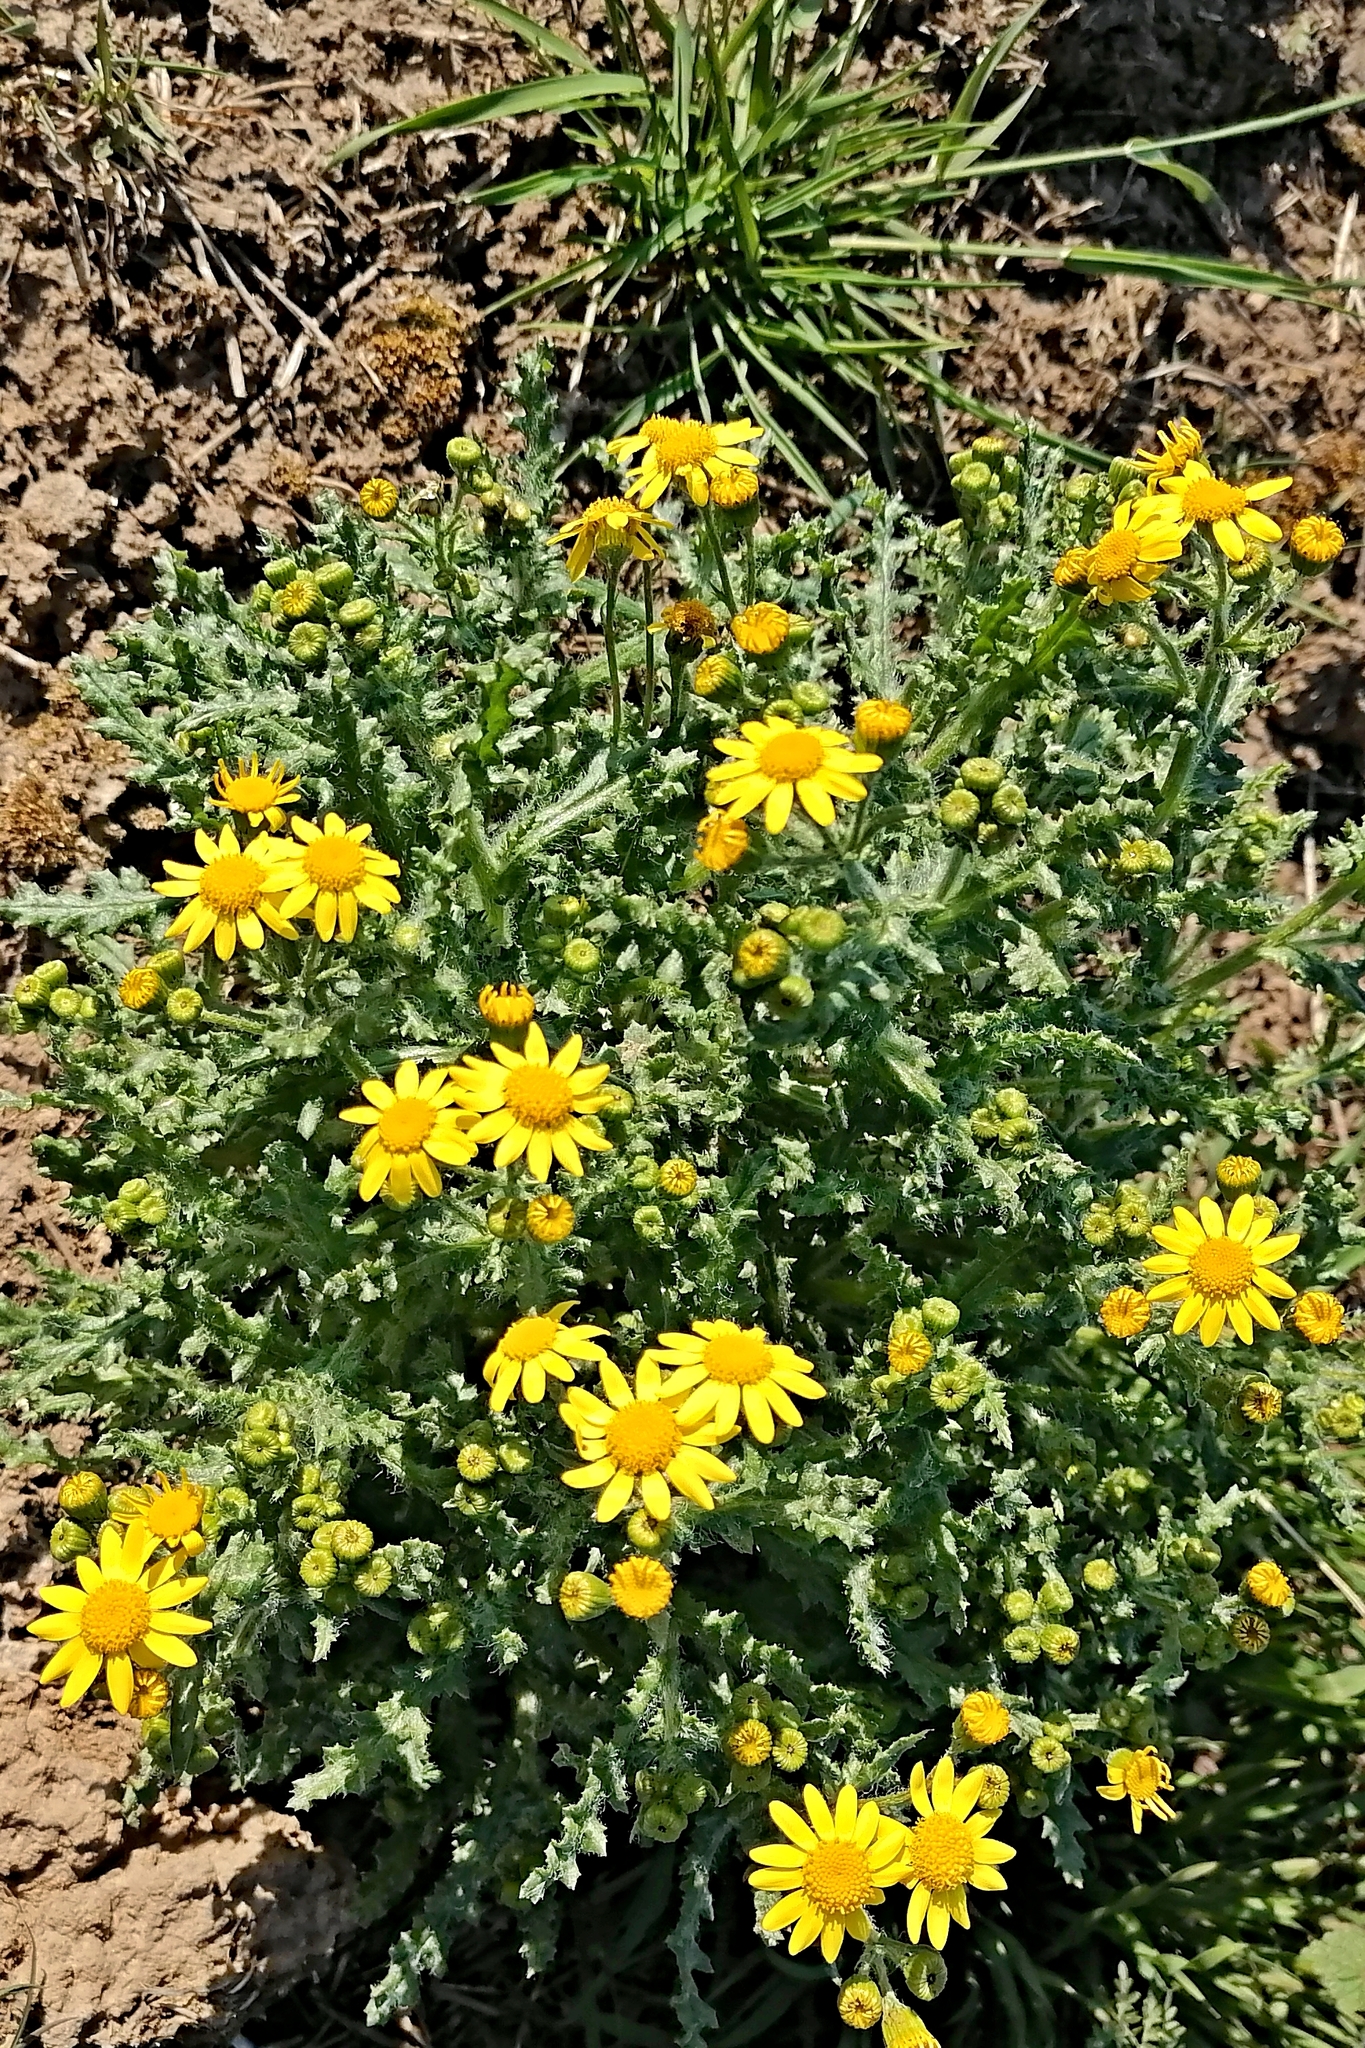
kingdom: Plantae
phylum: Tracheophyta
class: Magnoliopsida
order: Asterales
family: Asteraceae
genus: Senecio
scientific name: Senecio vernalis
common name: Eastern groundsel
